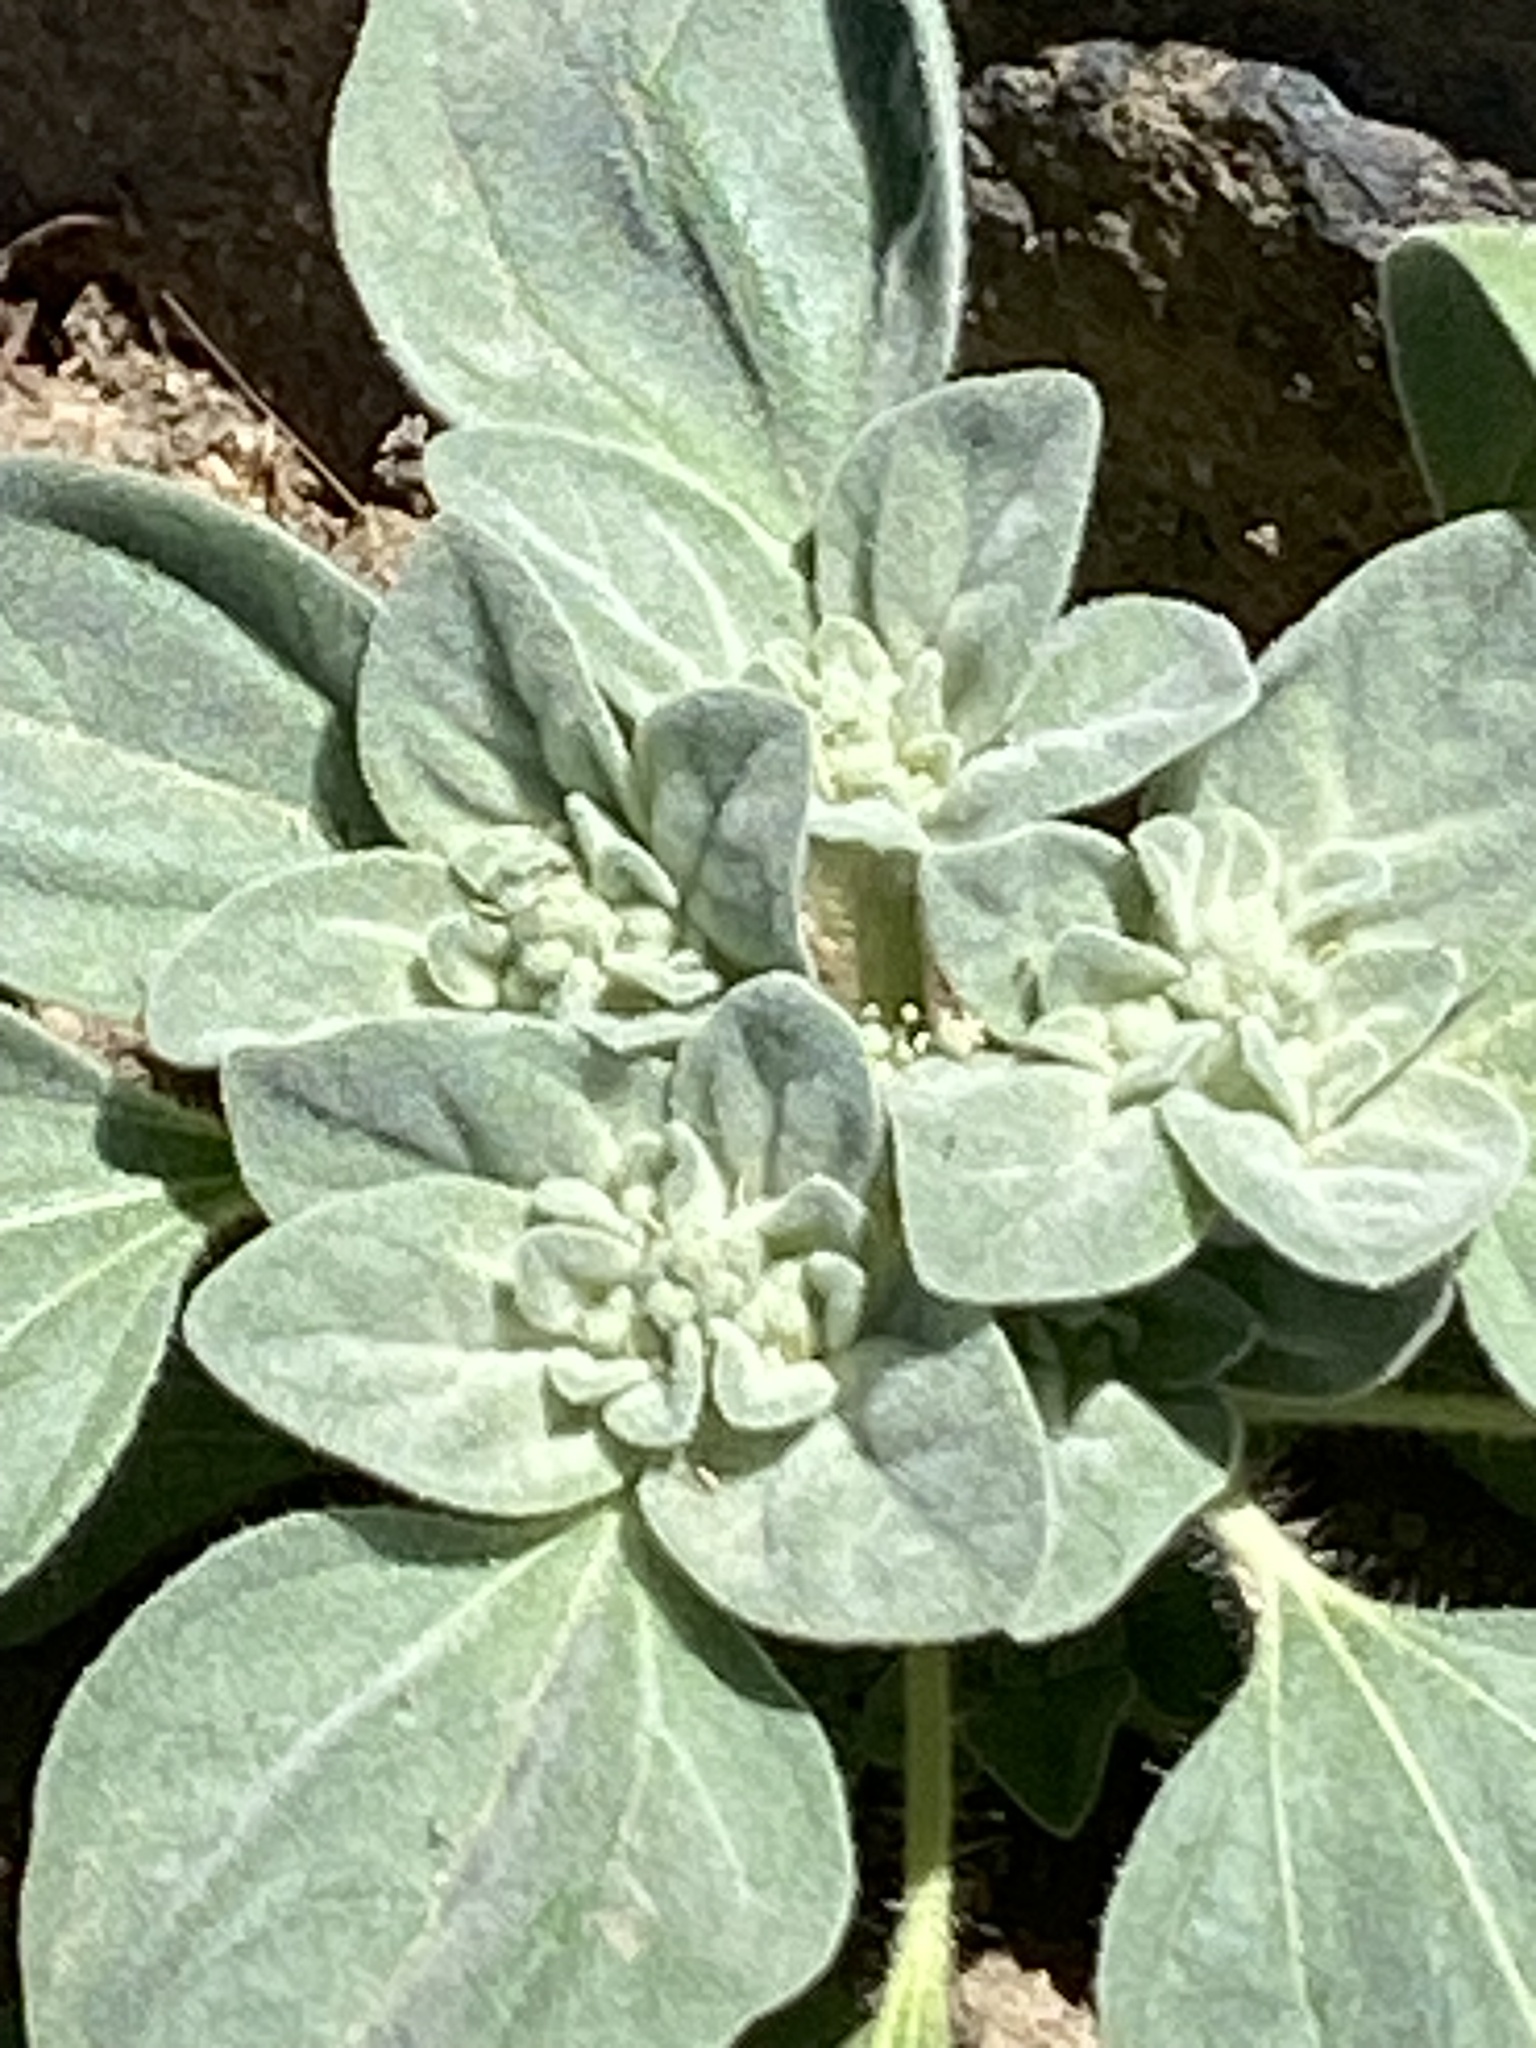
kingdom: Plantae
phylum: Tracheophyta
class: Magnoliopsida
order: Malpighiales
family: Euphorbiaceae
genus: Croton
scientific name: Croton setiger
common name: Dove weed
